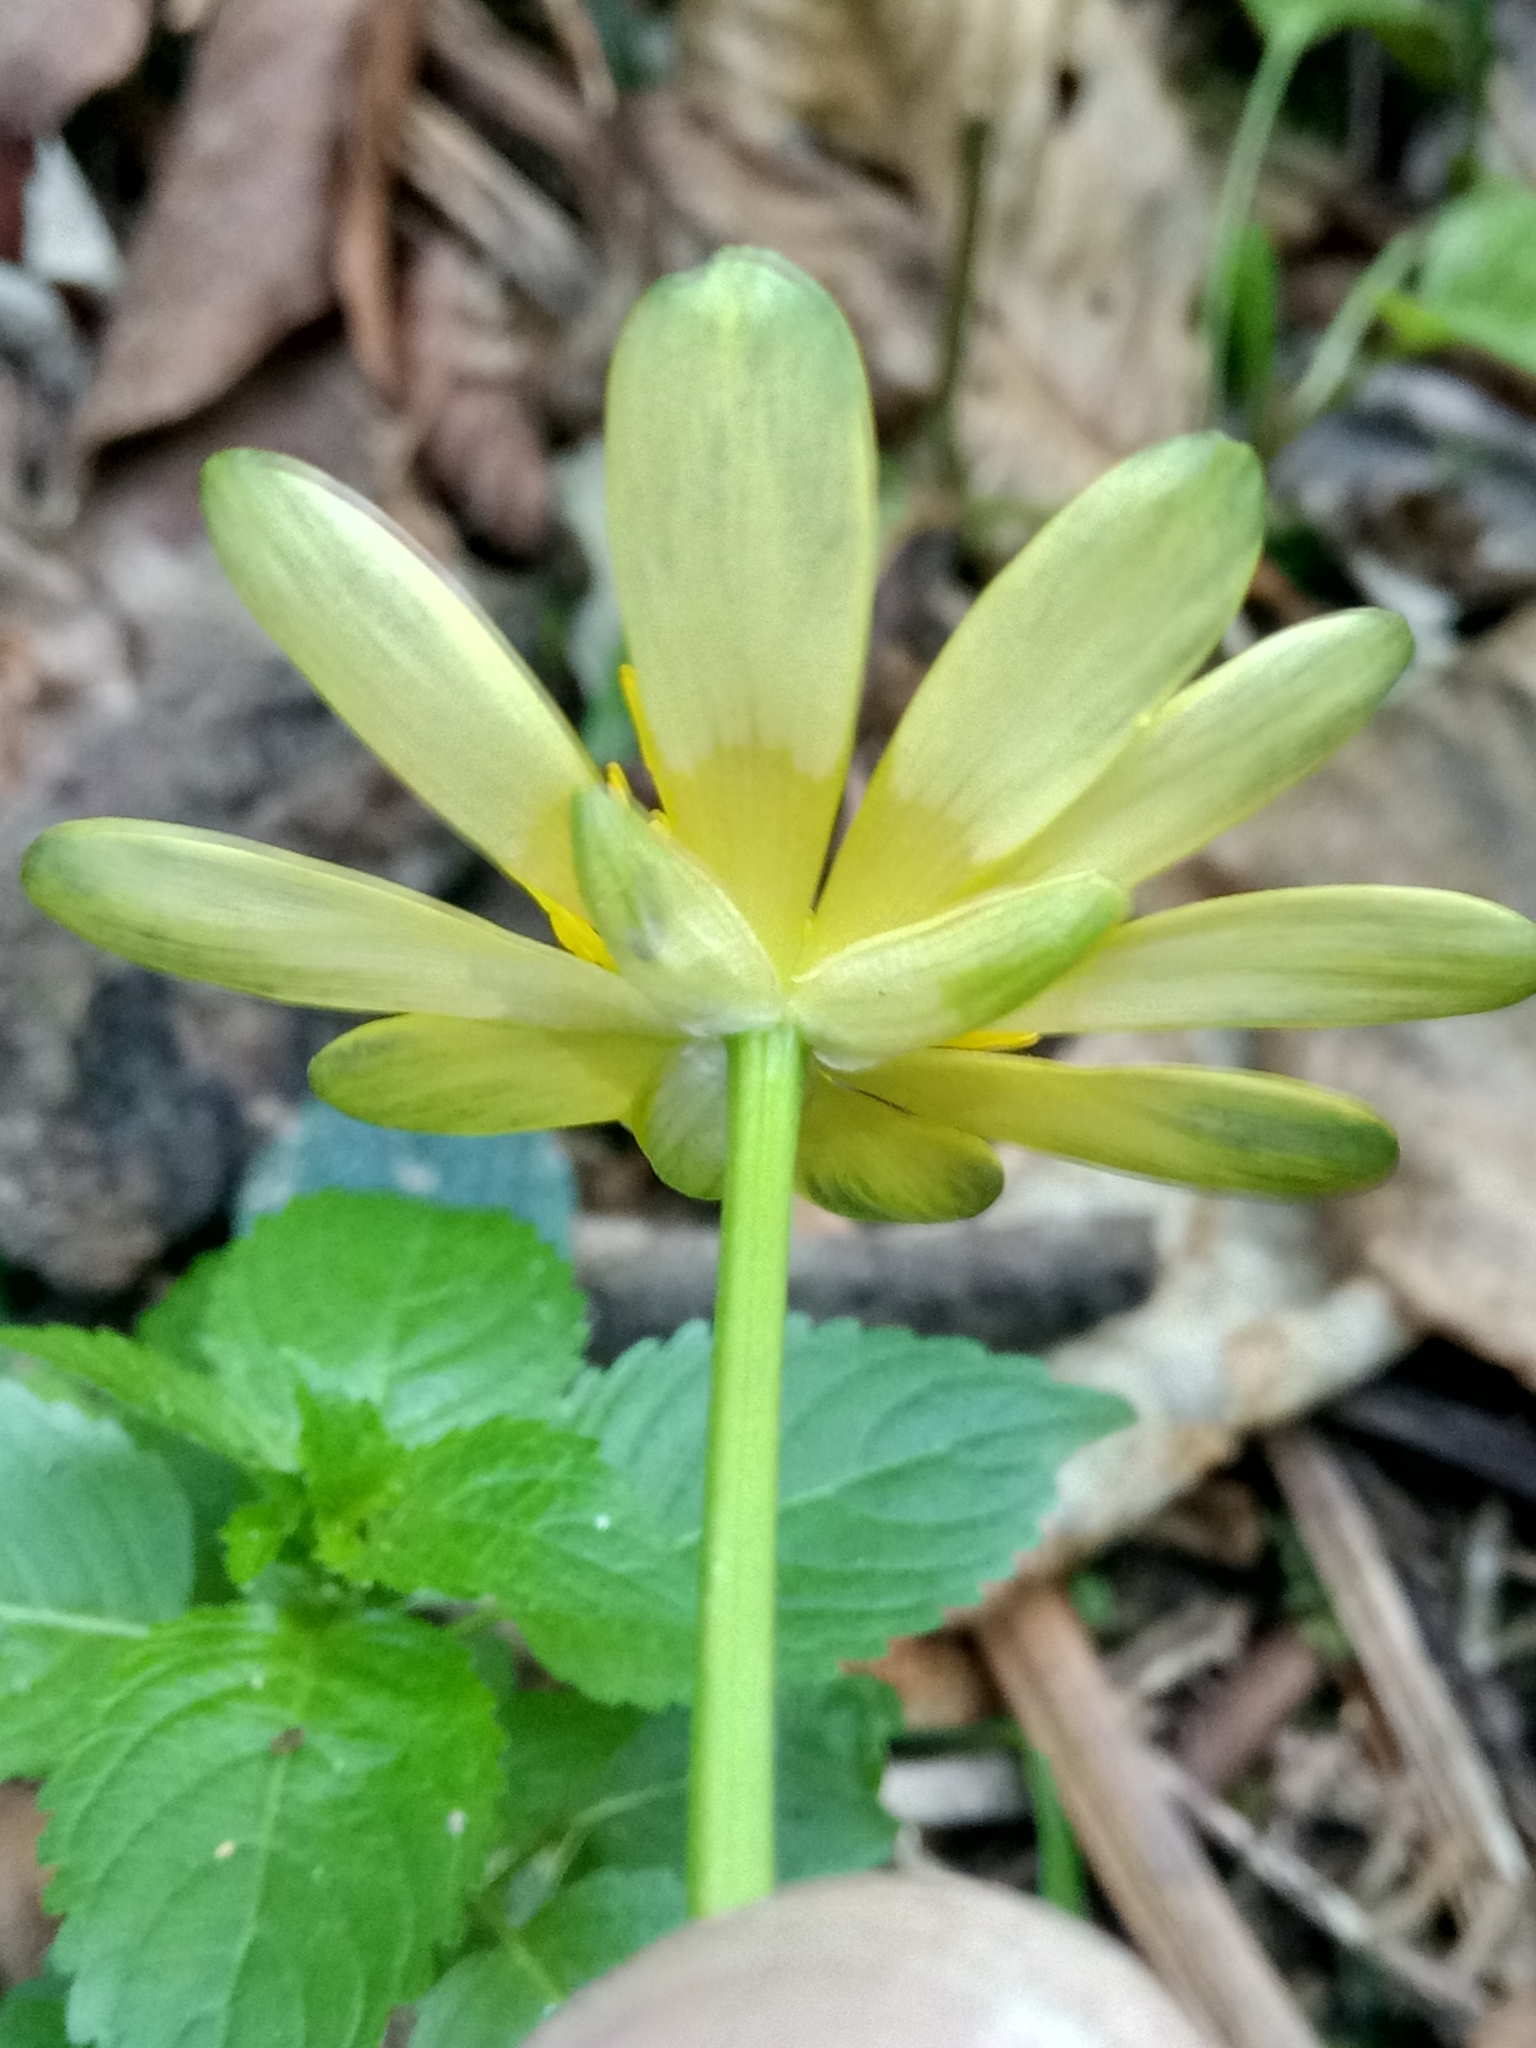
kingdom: Plantae
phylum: Tracheophyta
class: Magnoliopsida
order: Ranunculales
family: Ranunculaceae
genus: Ficaria
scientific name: Ficaria verna
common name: Lesser celandine
